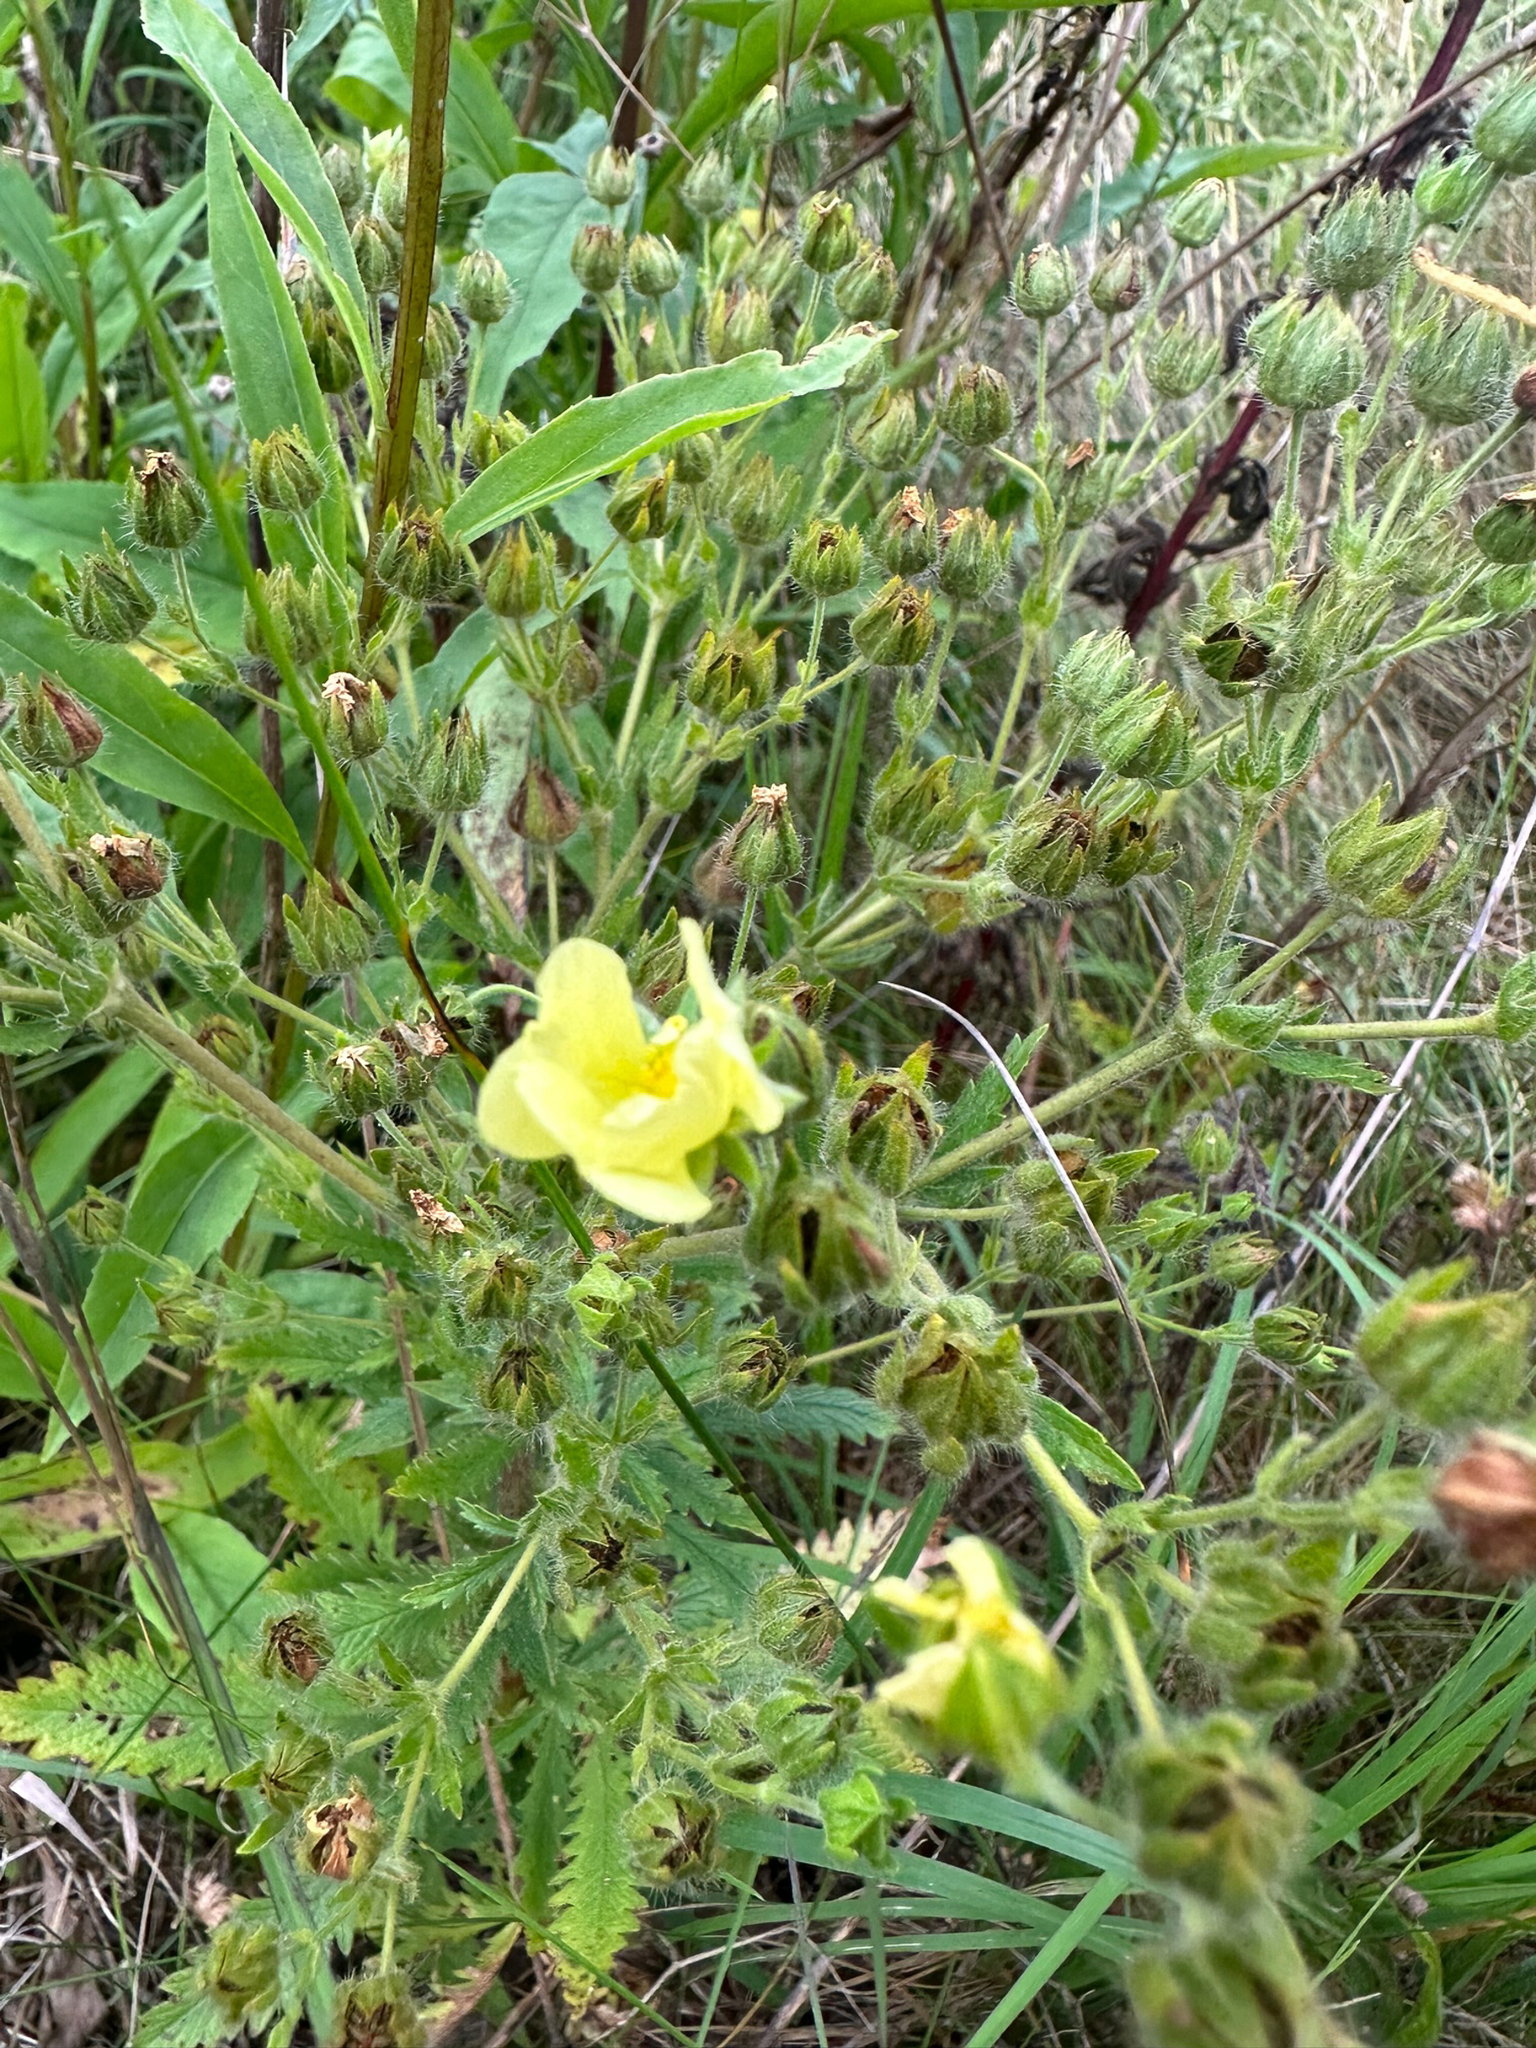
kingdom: Plantae
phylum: Tracheophyta
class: Magnoliopsida
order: Rosales
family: Rosaceae
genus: Potentilla
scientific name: Potentilla recta
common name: Sulphur cinquefoil
